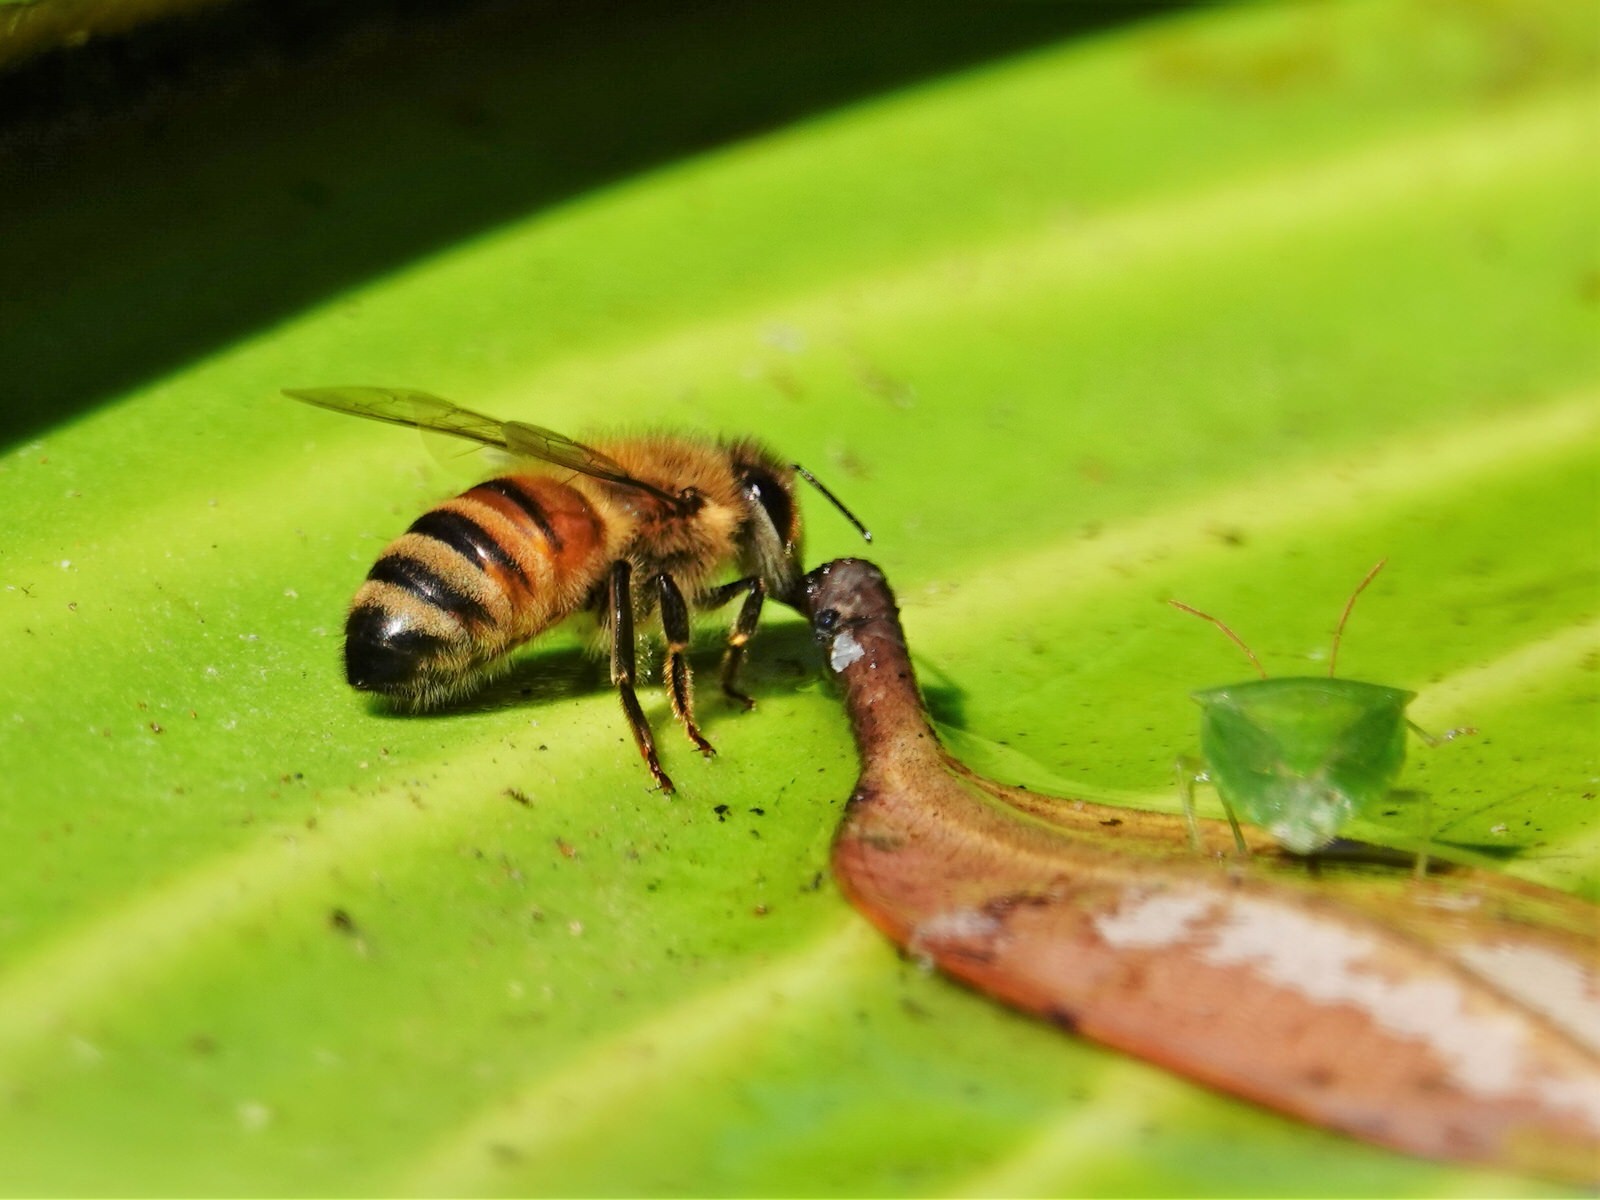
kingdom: Animalia
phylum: Arthropoda
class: Insecta
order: Hymenoptera
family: Apidae
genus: Apis
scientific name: Apis mellifera
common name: Honey bee
